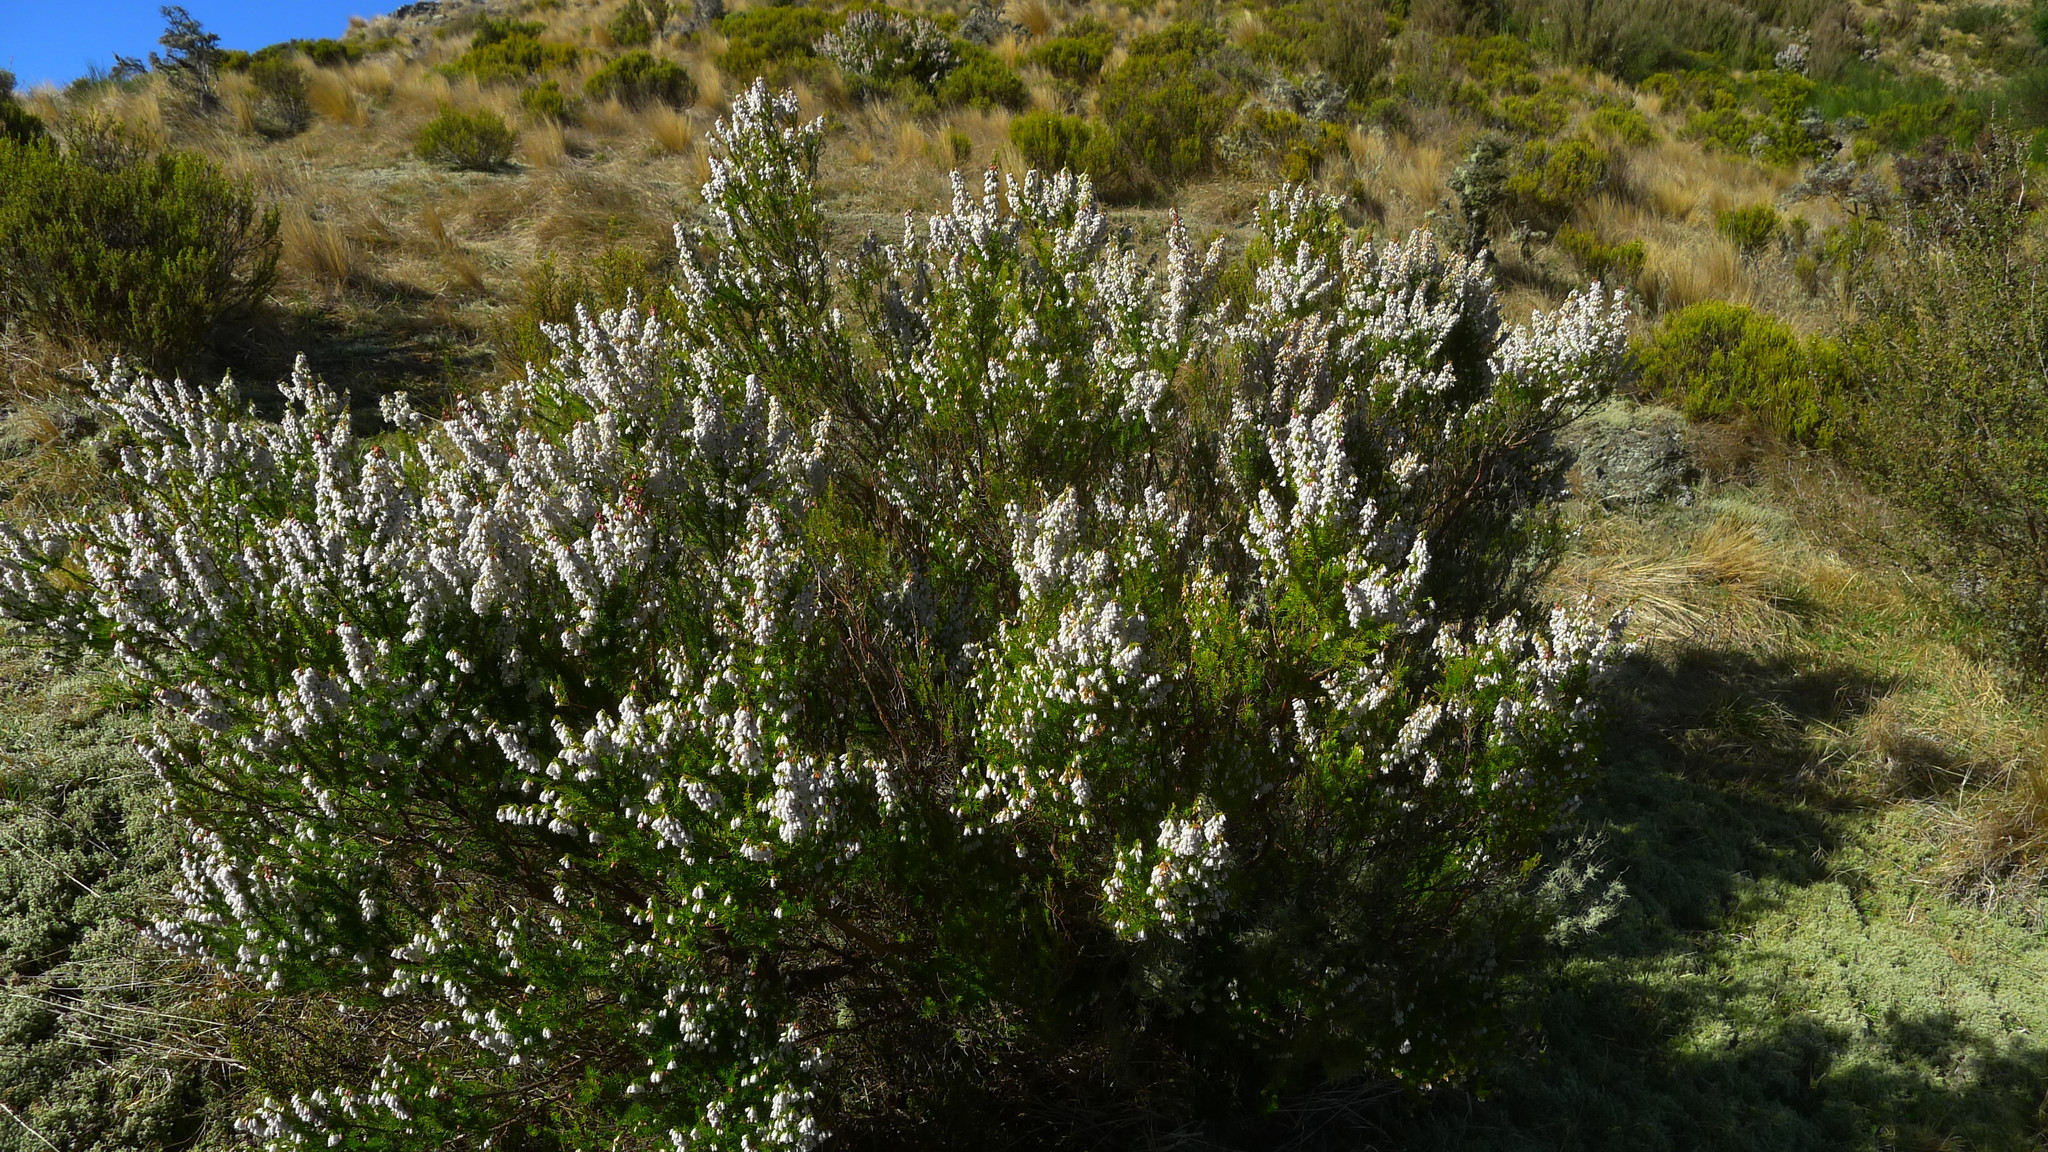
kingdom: Plantae
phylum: Tracheophyta
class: Magnoliopsida
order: Ericales
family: Ericaceae
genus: Erica
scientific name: Erica lusitanica
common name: Spanish heath
